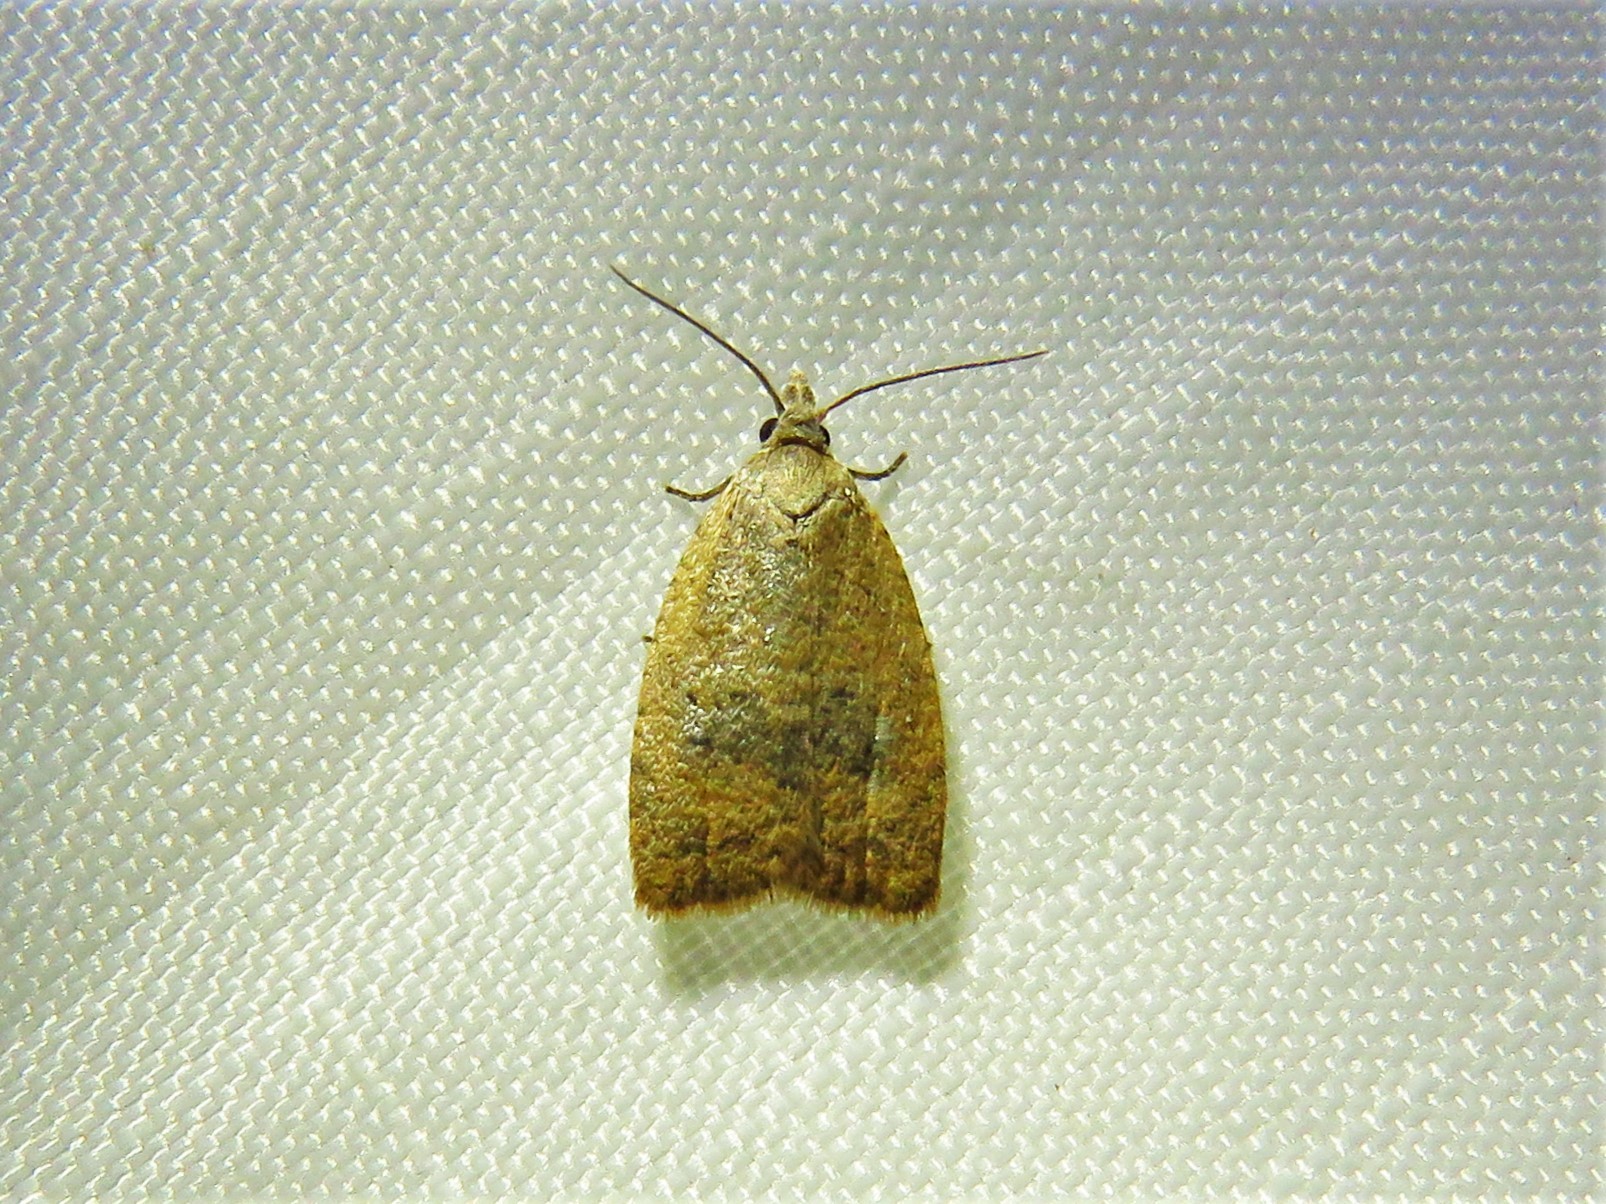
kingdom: Animalia
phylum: Arthropoda
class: Insecta
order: Lepidoptera
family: Tortricidae
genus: Sparganothoides
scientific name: Sparganothoides lentiginosana
